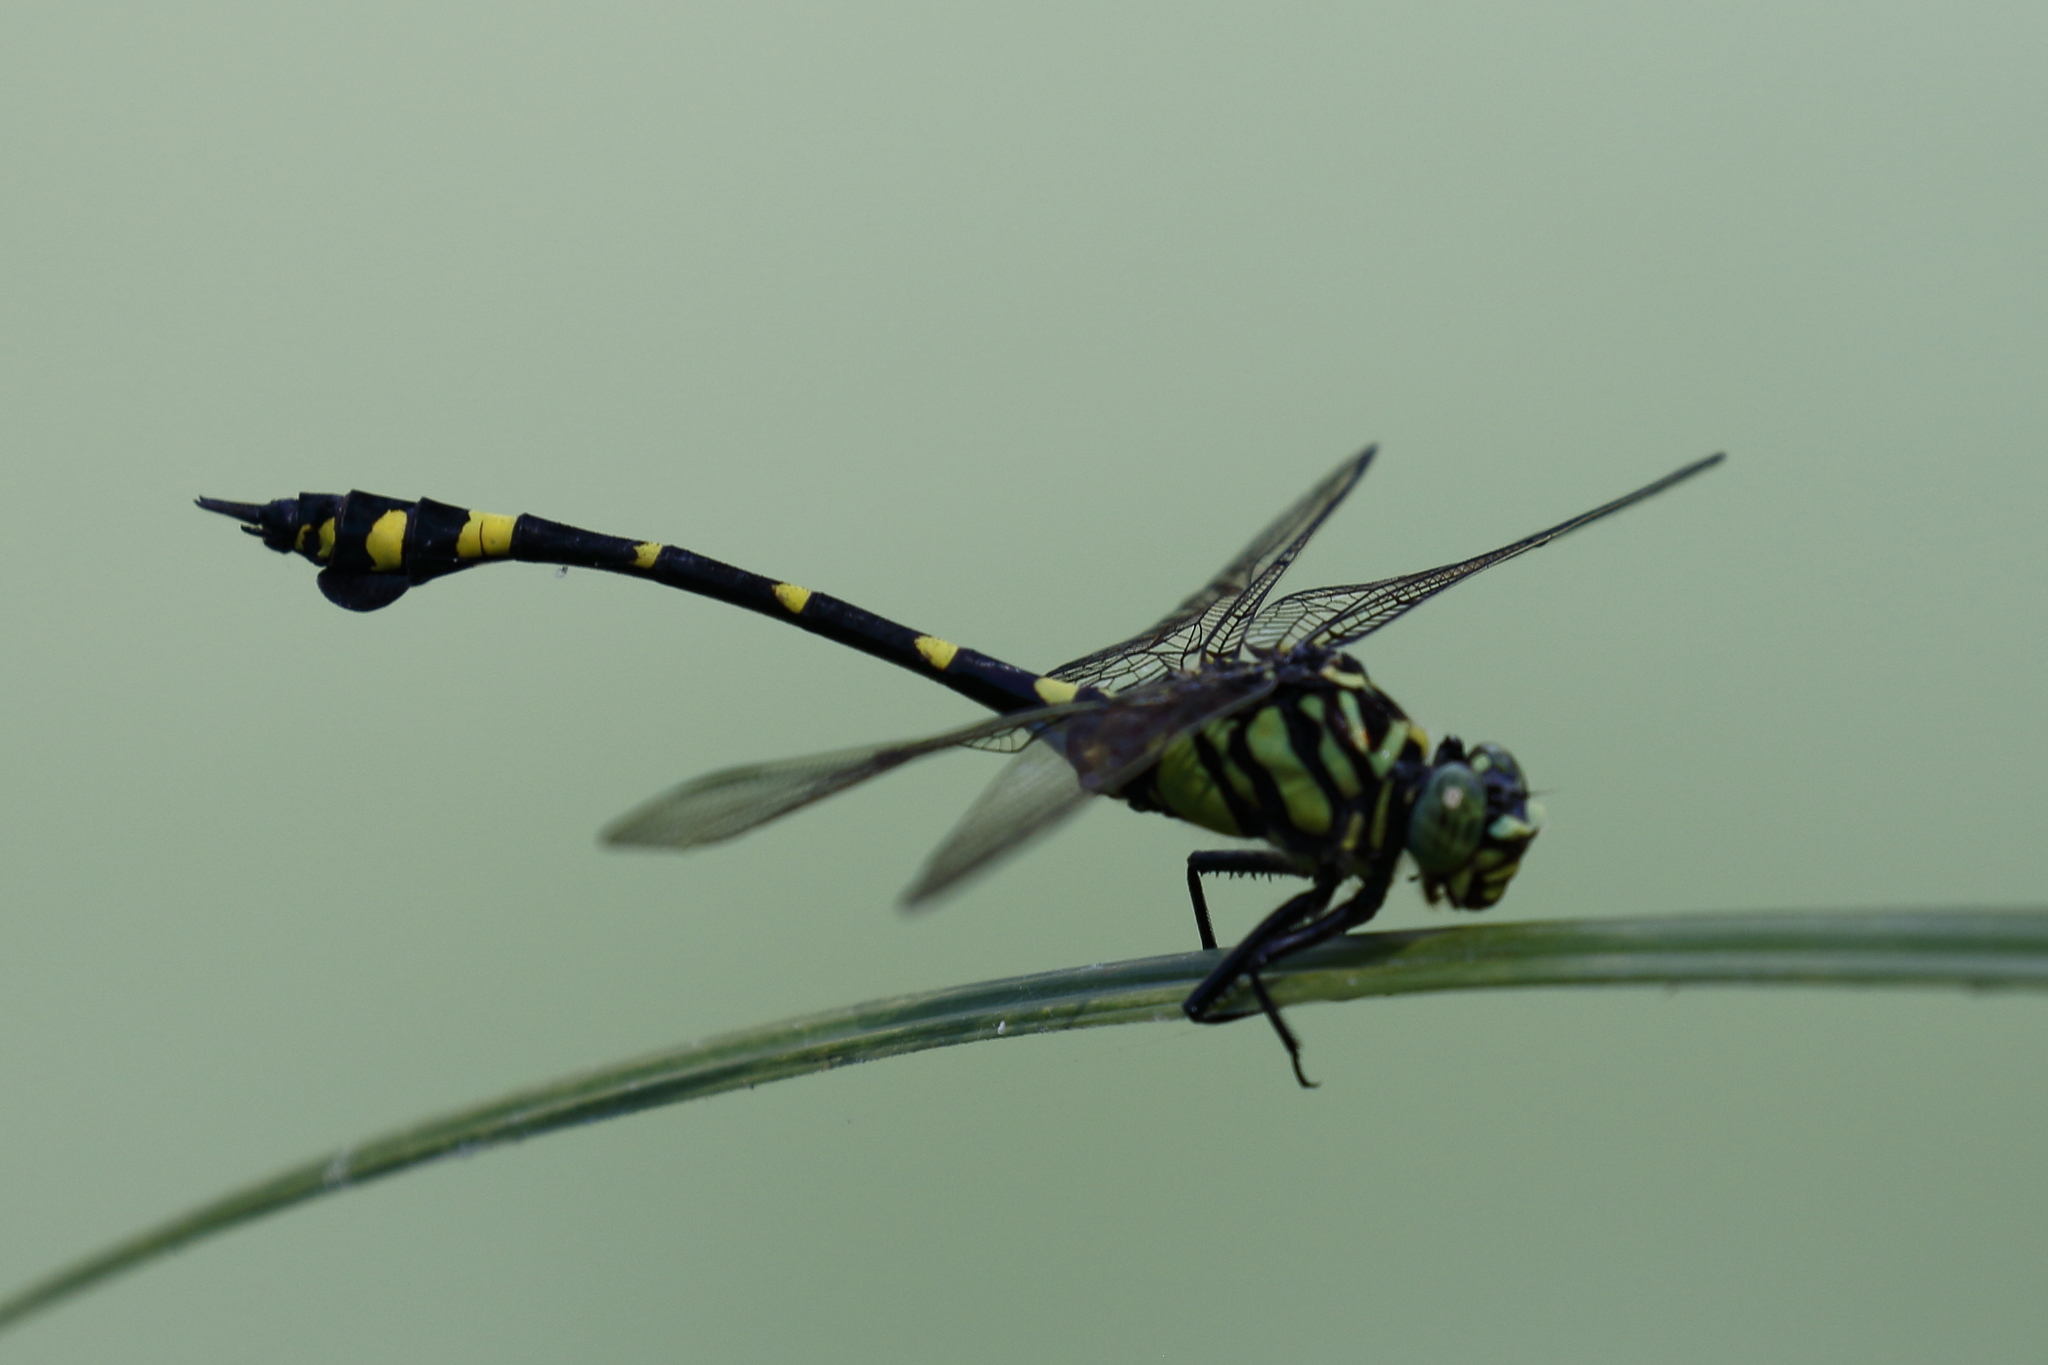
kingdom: Animalia
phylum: Arthropoda
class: Insecta
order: Odonata
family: Gomphidae
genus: Ictinogomphus
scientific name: Ictinogomphus rapax
